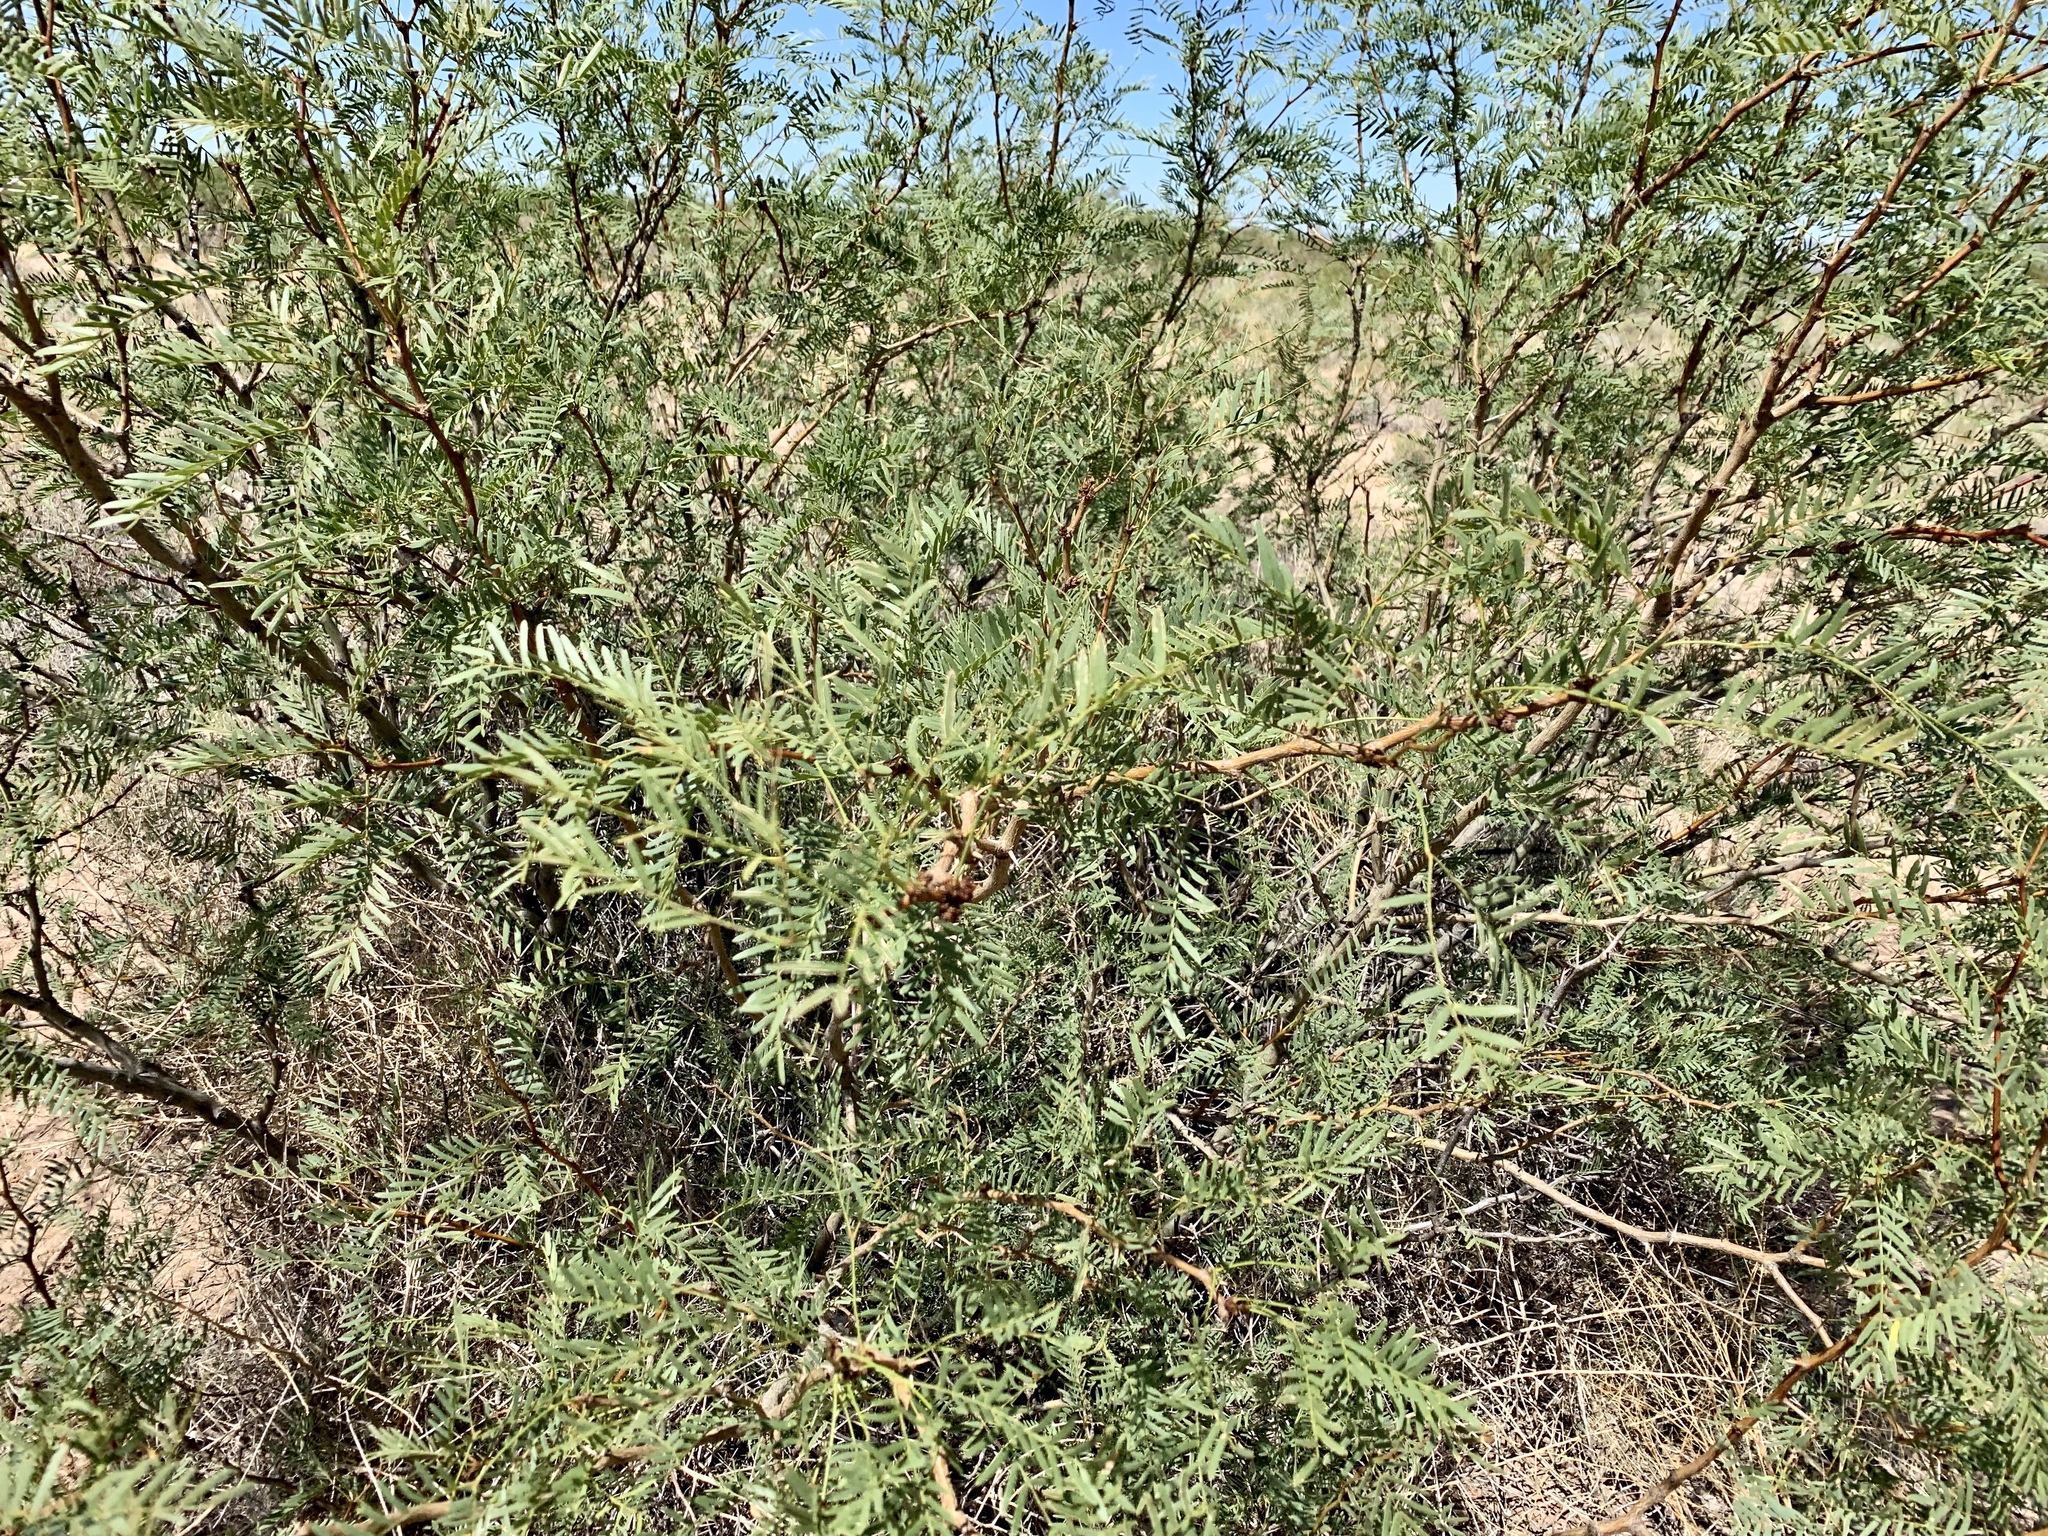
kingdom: Plantae
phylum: Tracheophyta
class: Magnoliopsida
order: Fabales
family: Fabaceae
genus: Prosopis
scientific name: Prosopis glandulosa
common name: Honey mesquite
